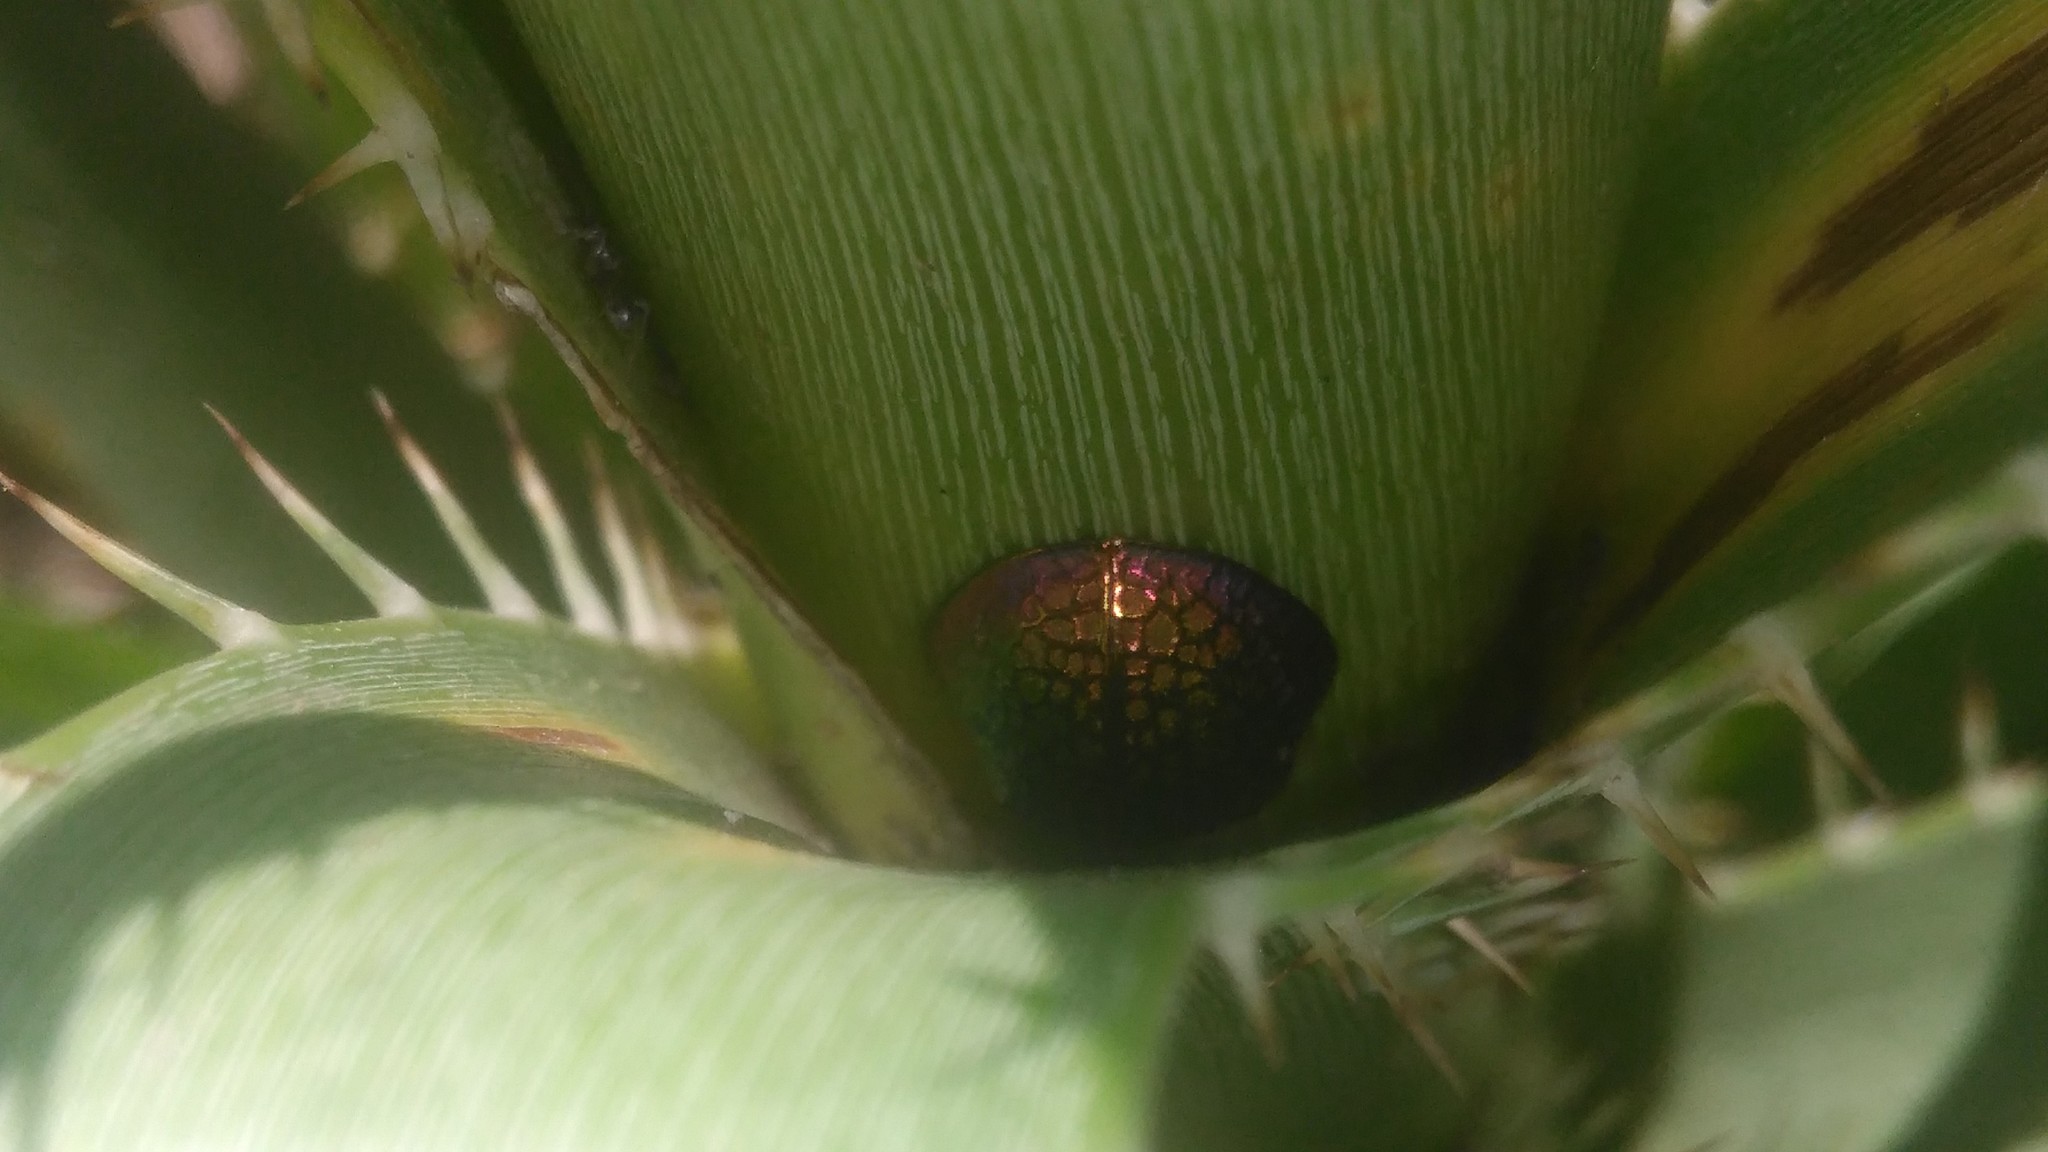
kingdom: Animalia
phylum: Arthropoda
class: Insecta
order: Coleoptera
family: Chrysomelidae
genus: Stolas
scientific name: Stolas festiva
